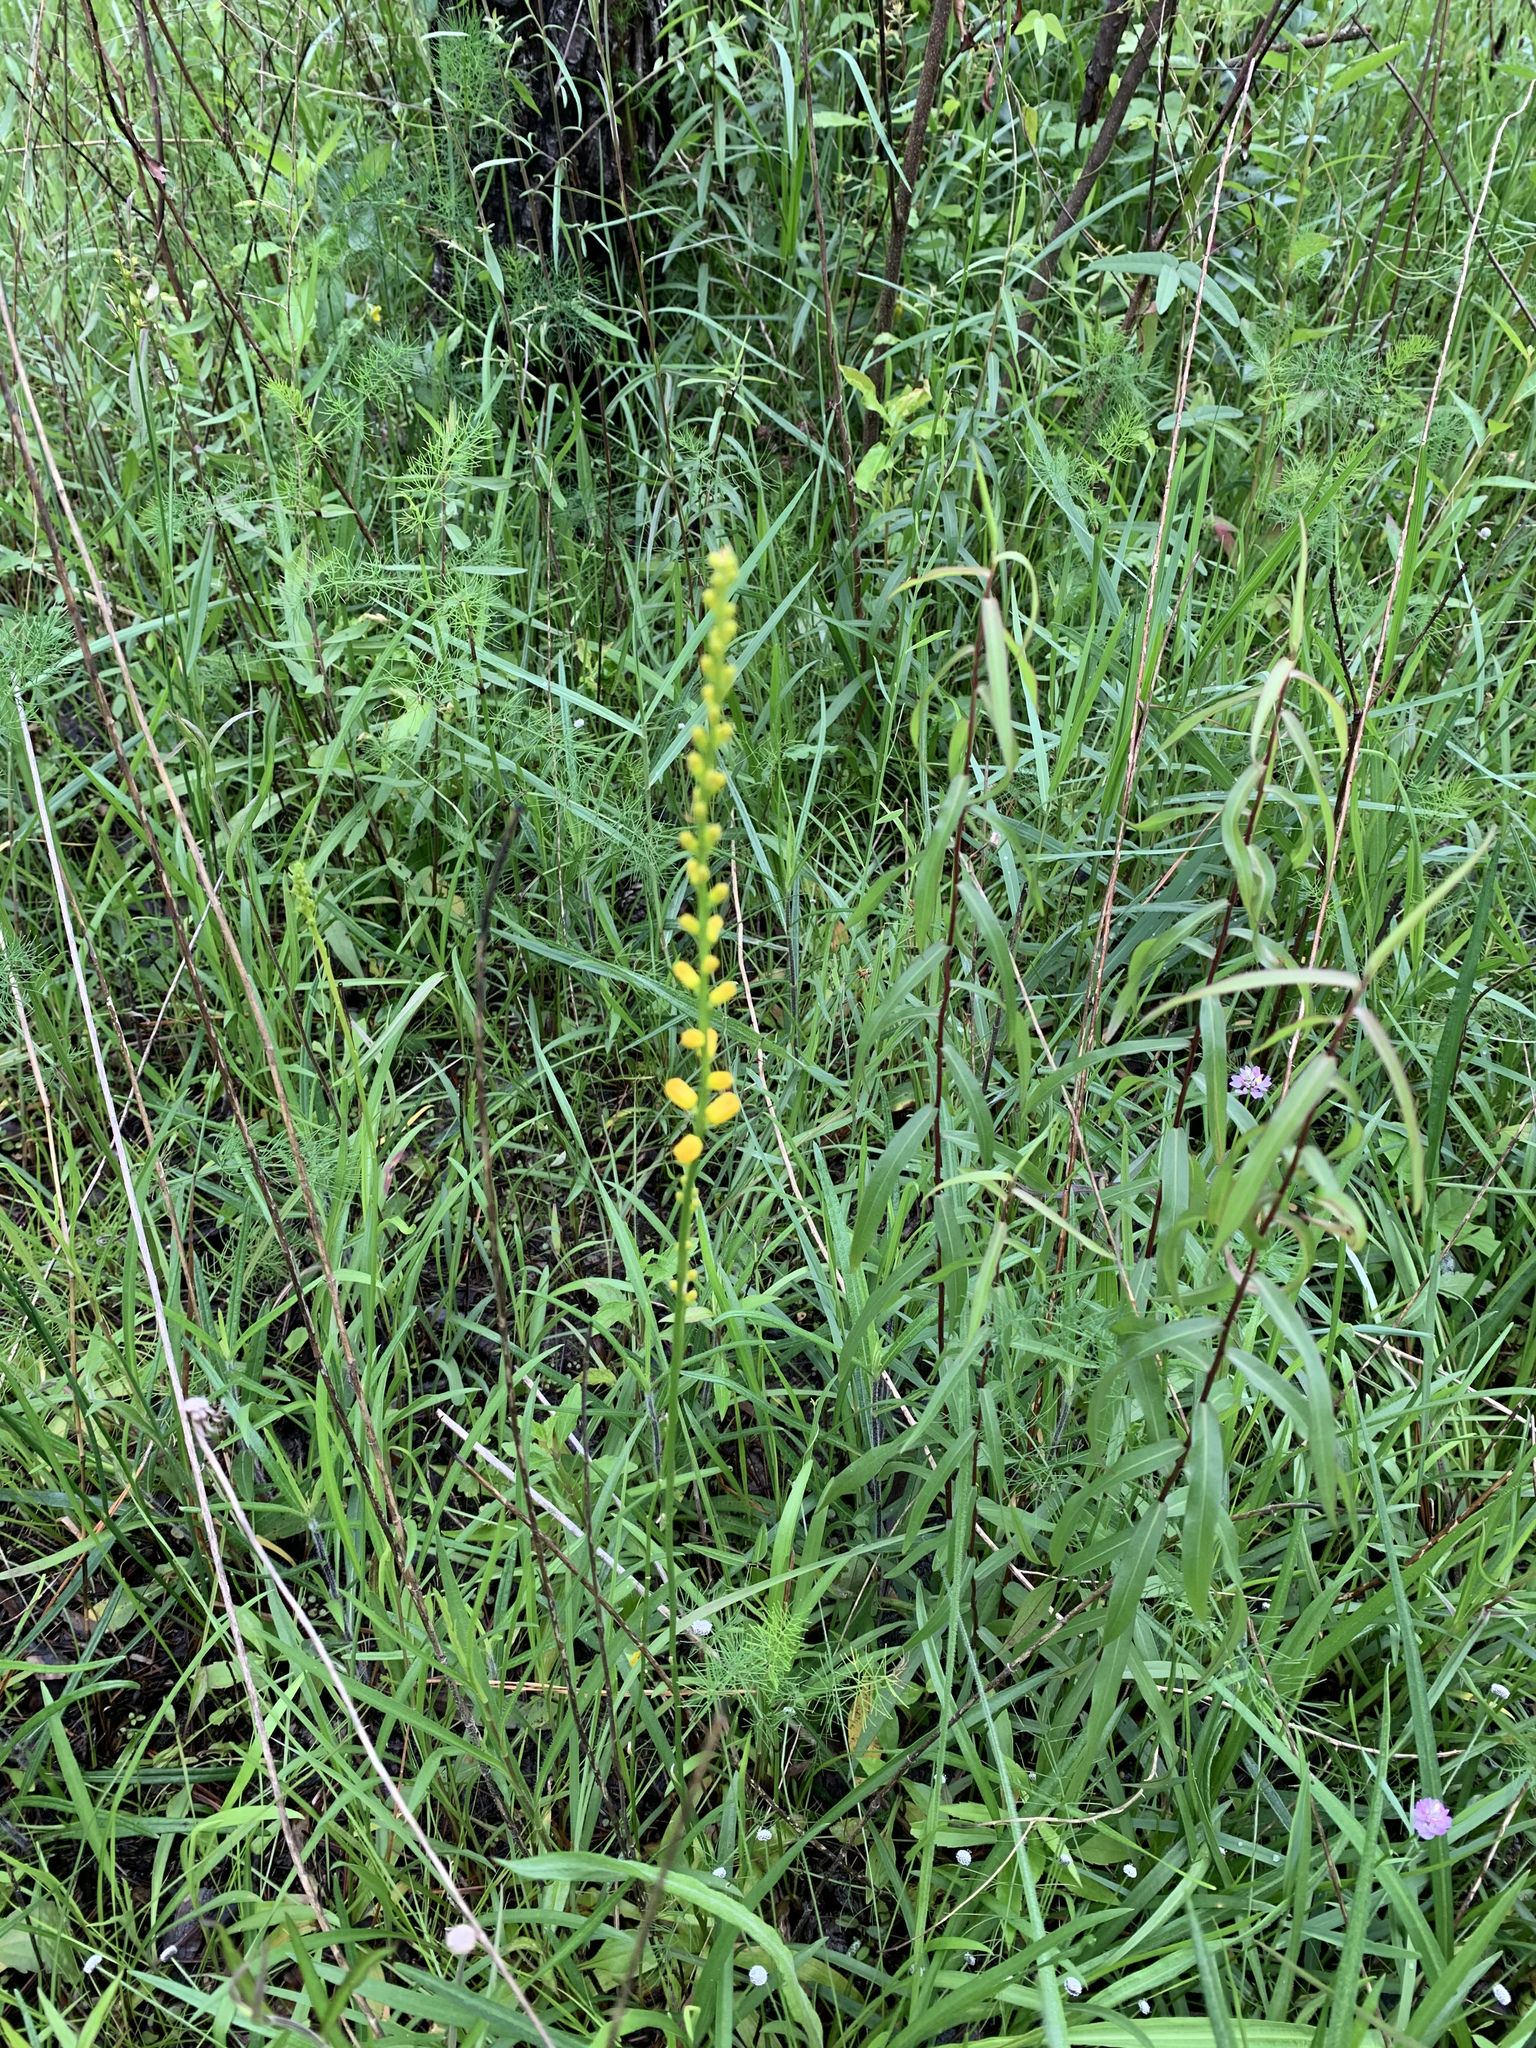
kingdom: Plantae
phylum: Tracheophyta
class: Liliopsida
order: Dioscoreales
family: Nartheciaceae
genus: Aletris
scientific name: Aletris aurea
